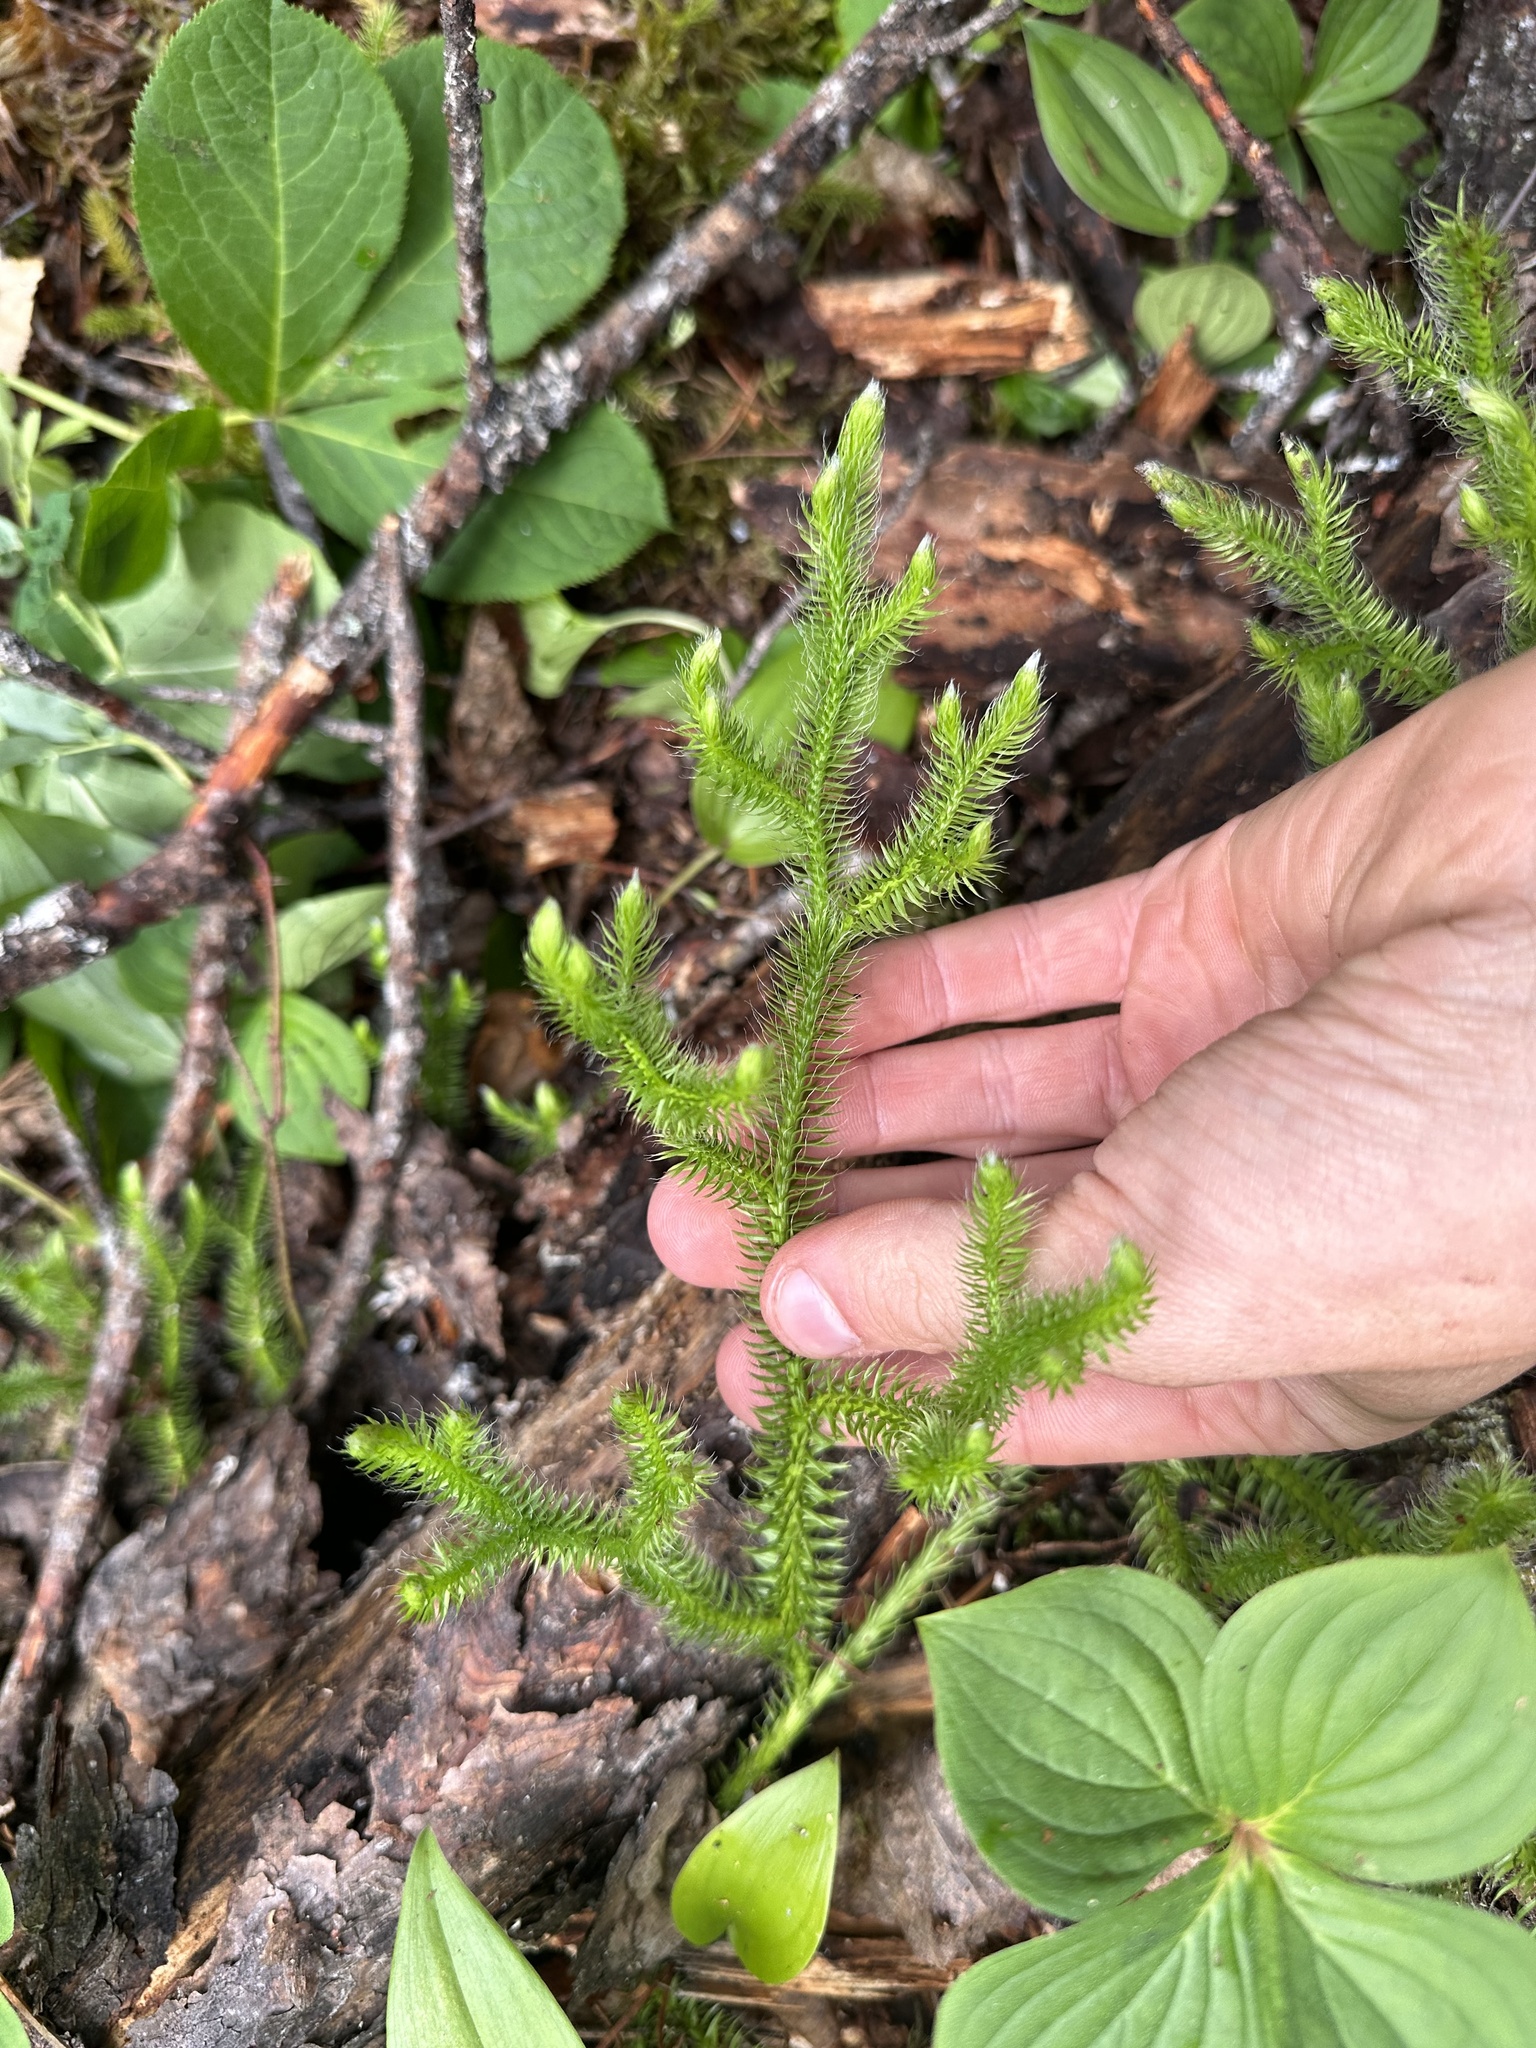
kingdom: Plantae
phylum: Tracheophyta
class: Lycopodiopsida
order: Lycopodiales
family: Lycopodiaceae
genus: Lycopodium
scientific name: Lycopodium clavatum
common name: Stag's-horn clubmoss
